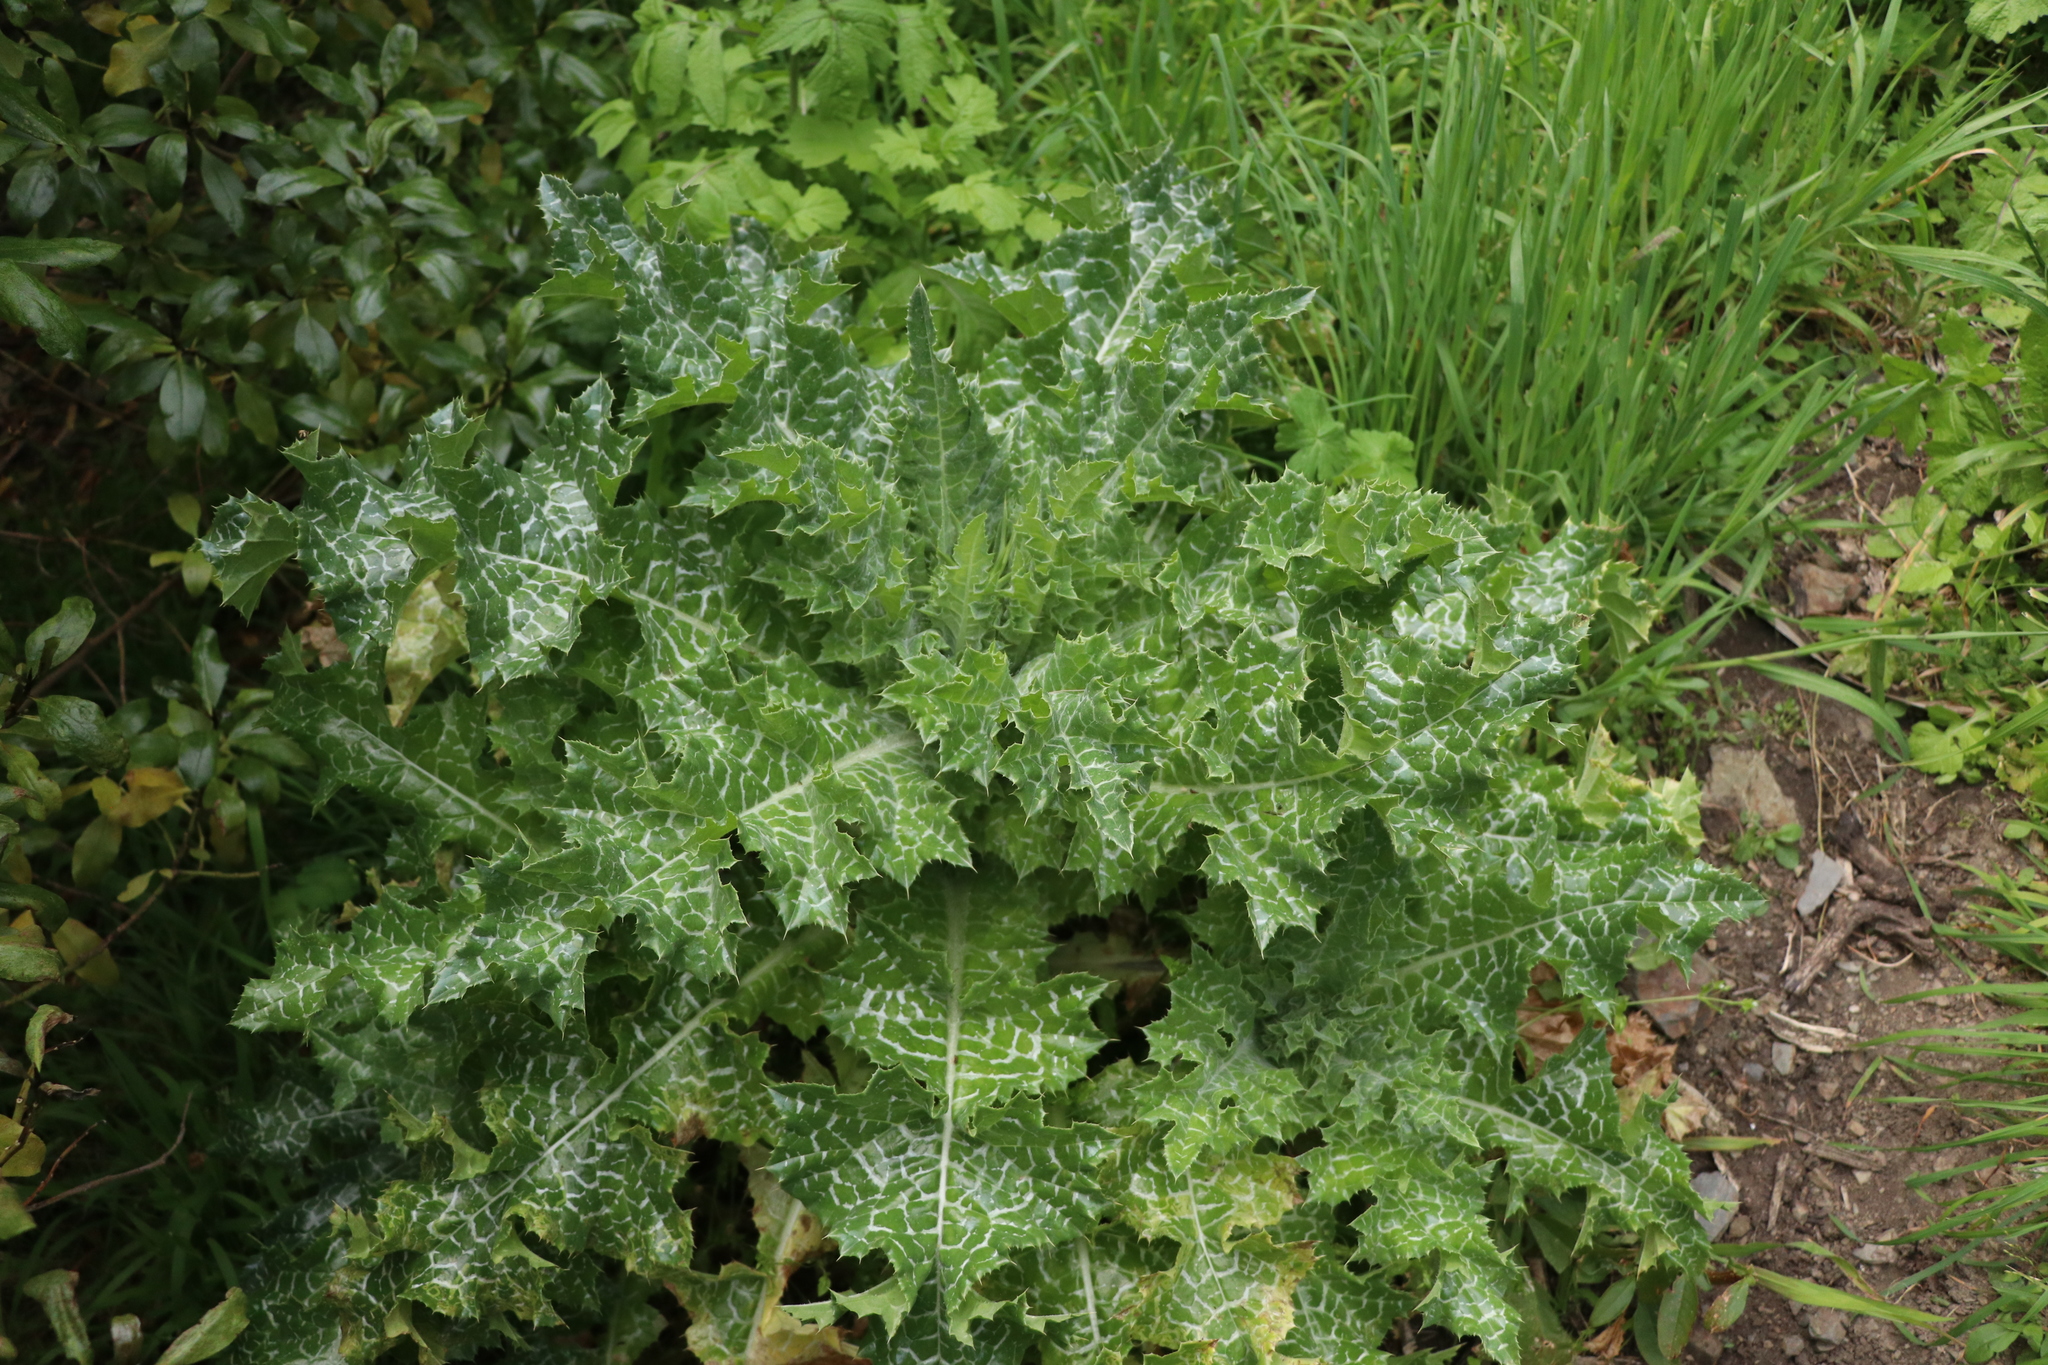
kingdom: Plantae
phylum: Tracheophyta
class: Magnoliopsida
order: Asterales
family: Asteraceae
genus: Silybum
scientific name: Silybum marianum
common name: Milk thistle
